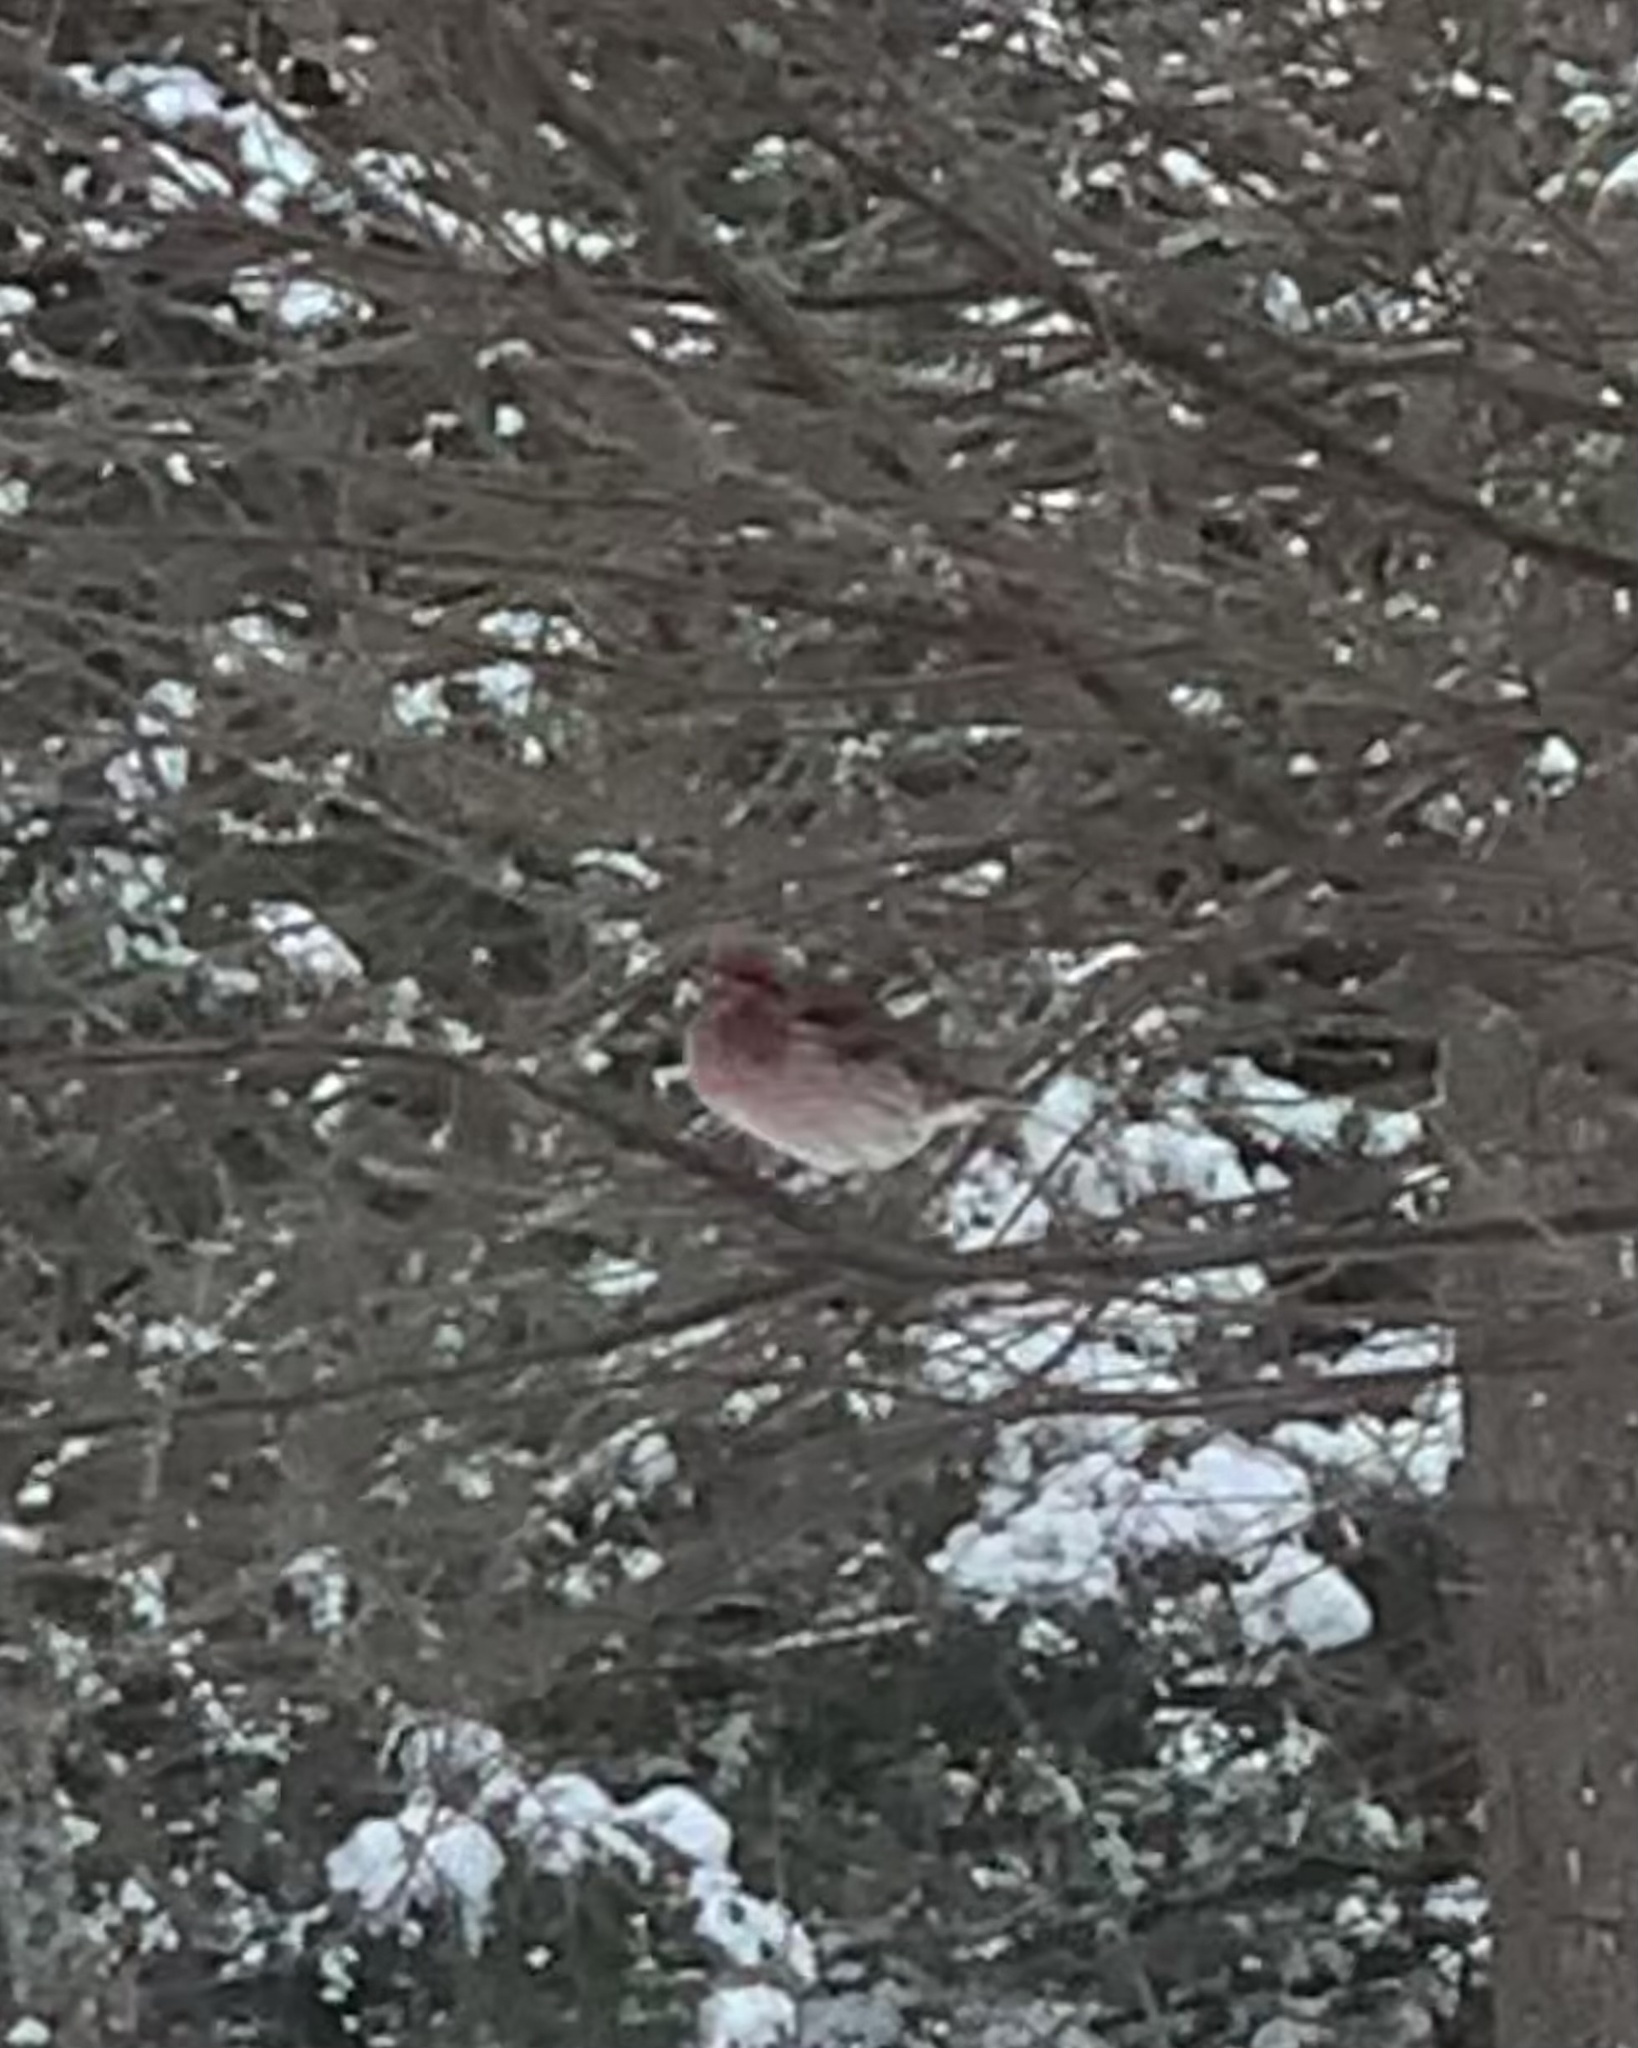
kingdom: Animalia
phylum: Chordata
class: Aves
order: Passeriformes
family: Fringillidae
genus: Haemorhous
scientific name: Haemorhous purpureus
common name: Purple finch
